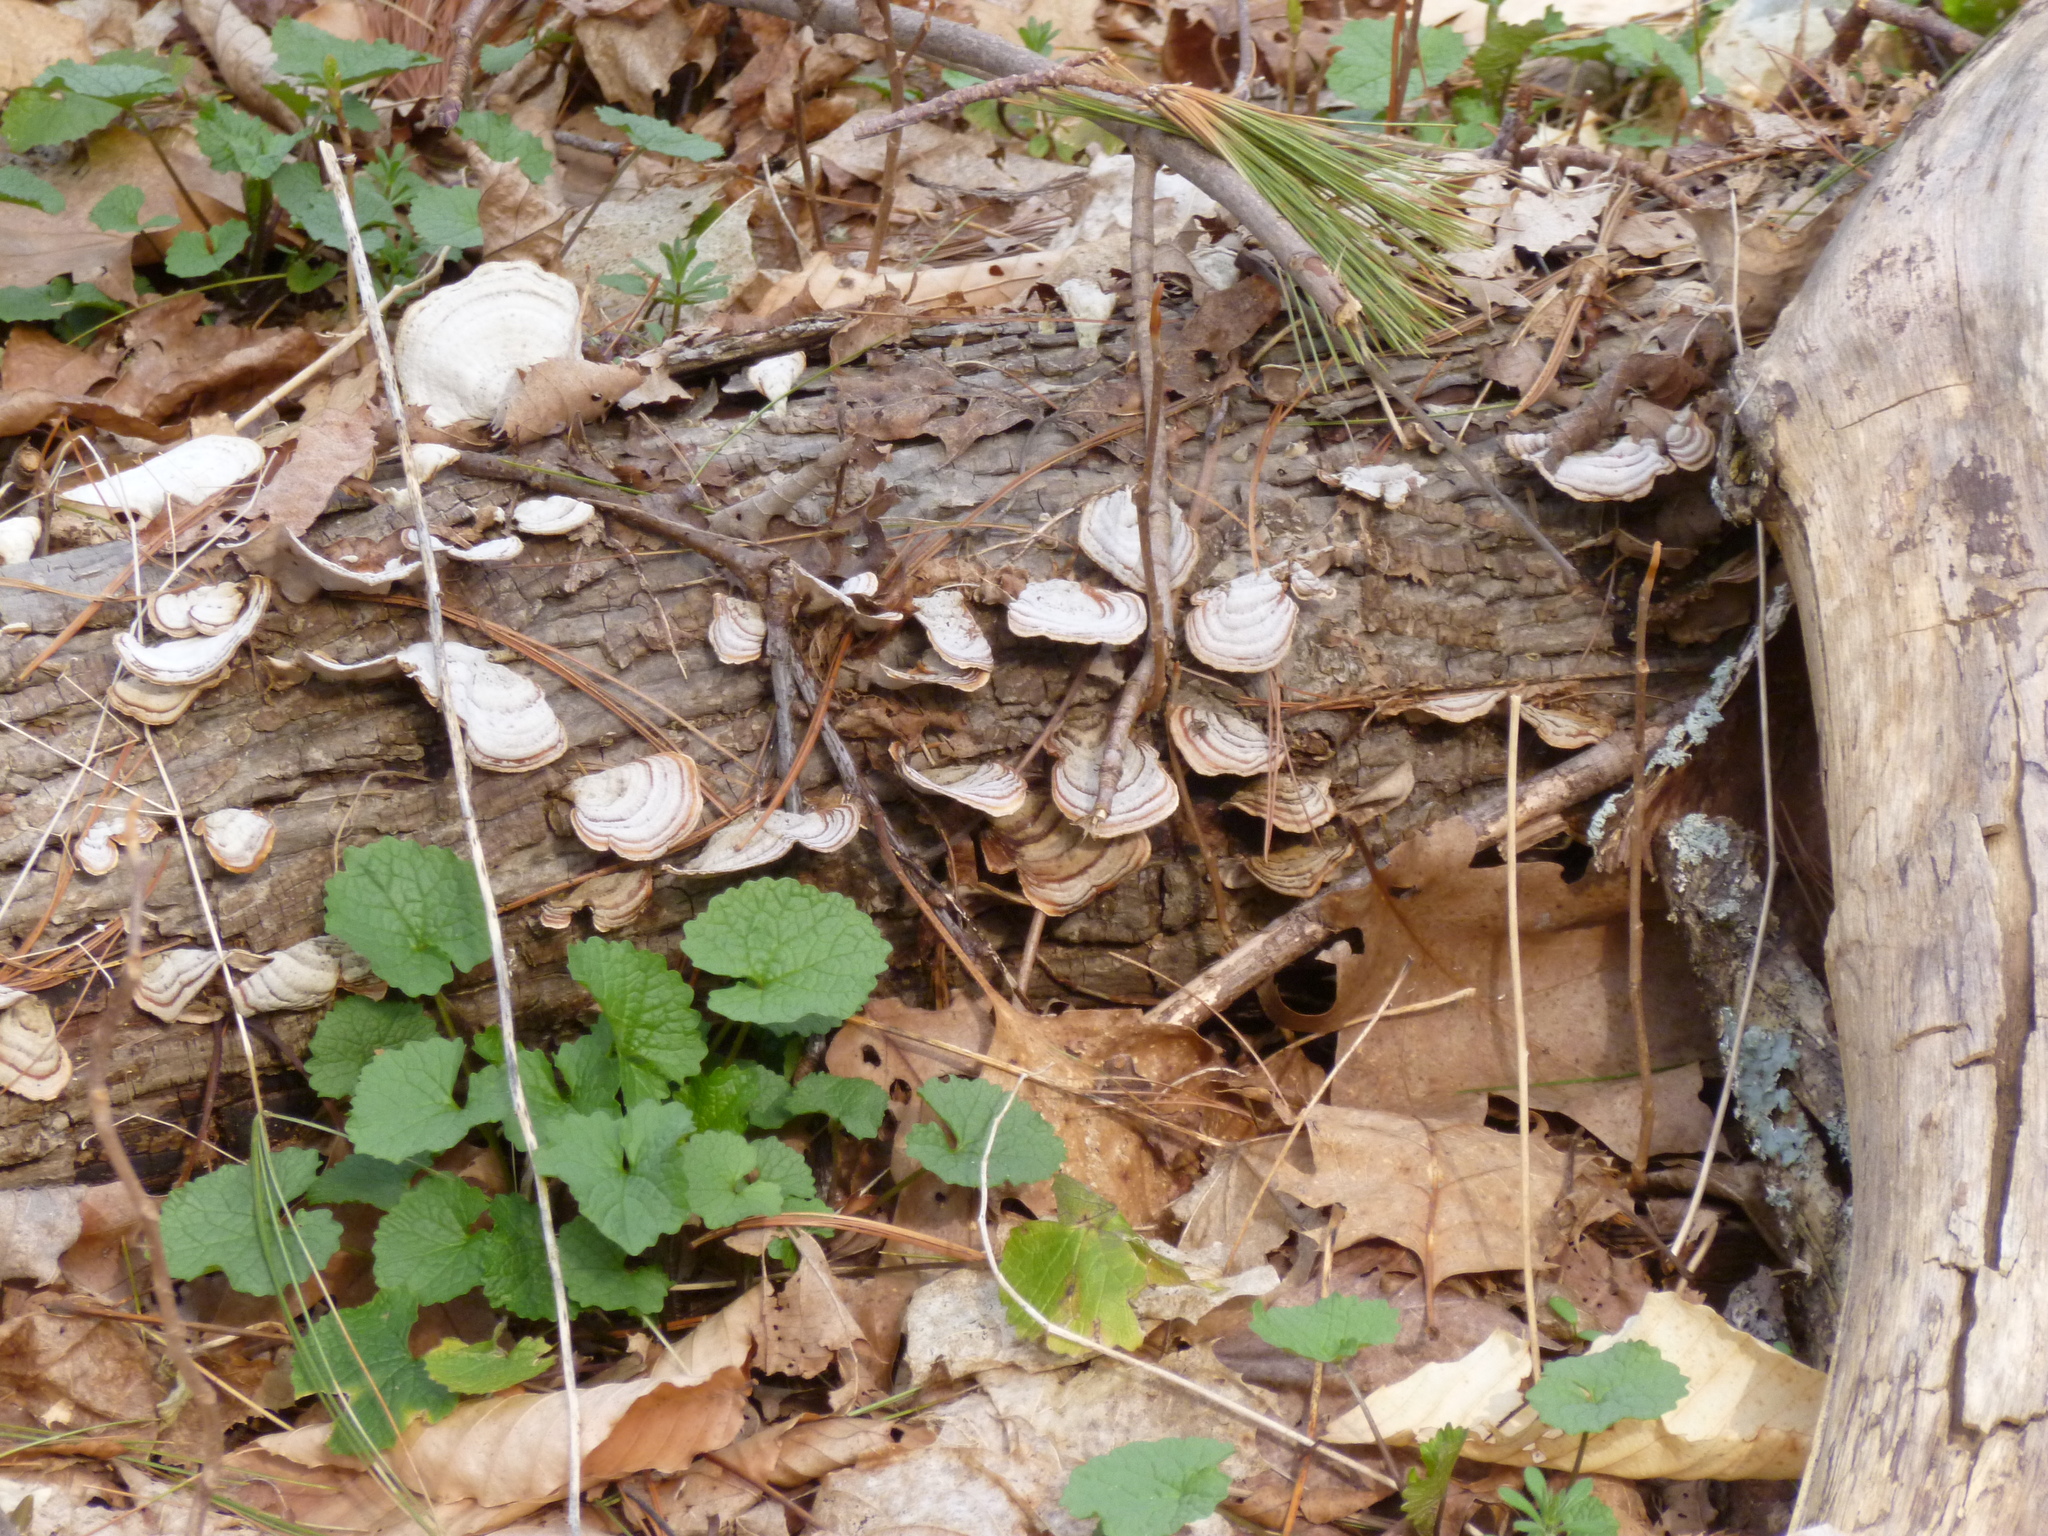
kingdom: Plantae
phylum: Tracheophyta
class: Magnoliopsida
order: Brassicales
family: Brassicaceae
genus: Alliaria
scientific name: Alliaria petiolata
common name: Garlic mustard
